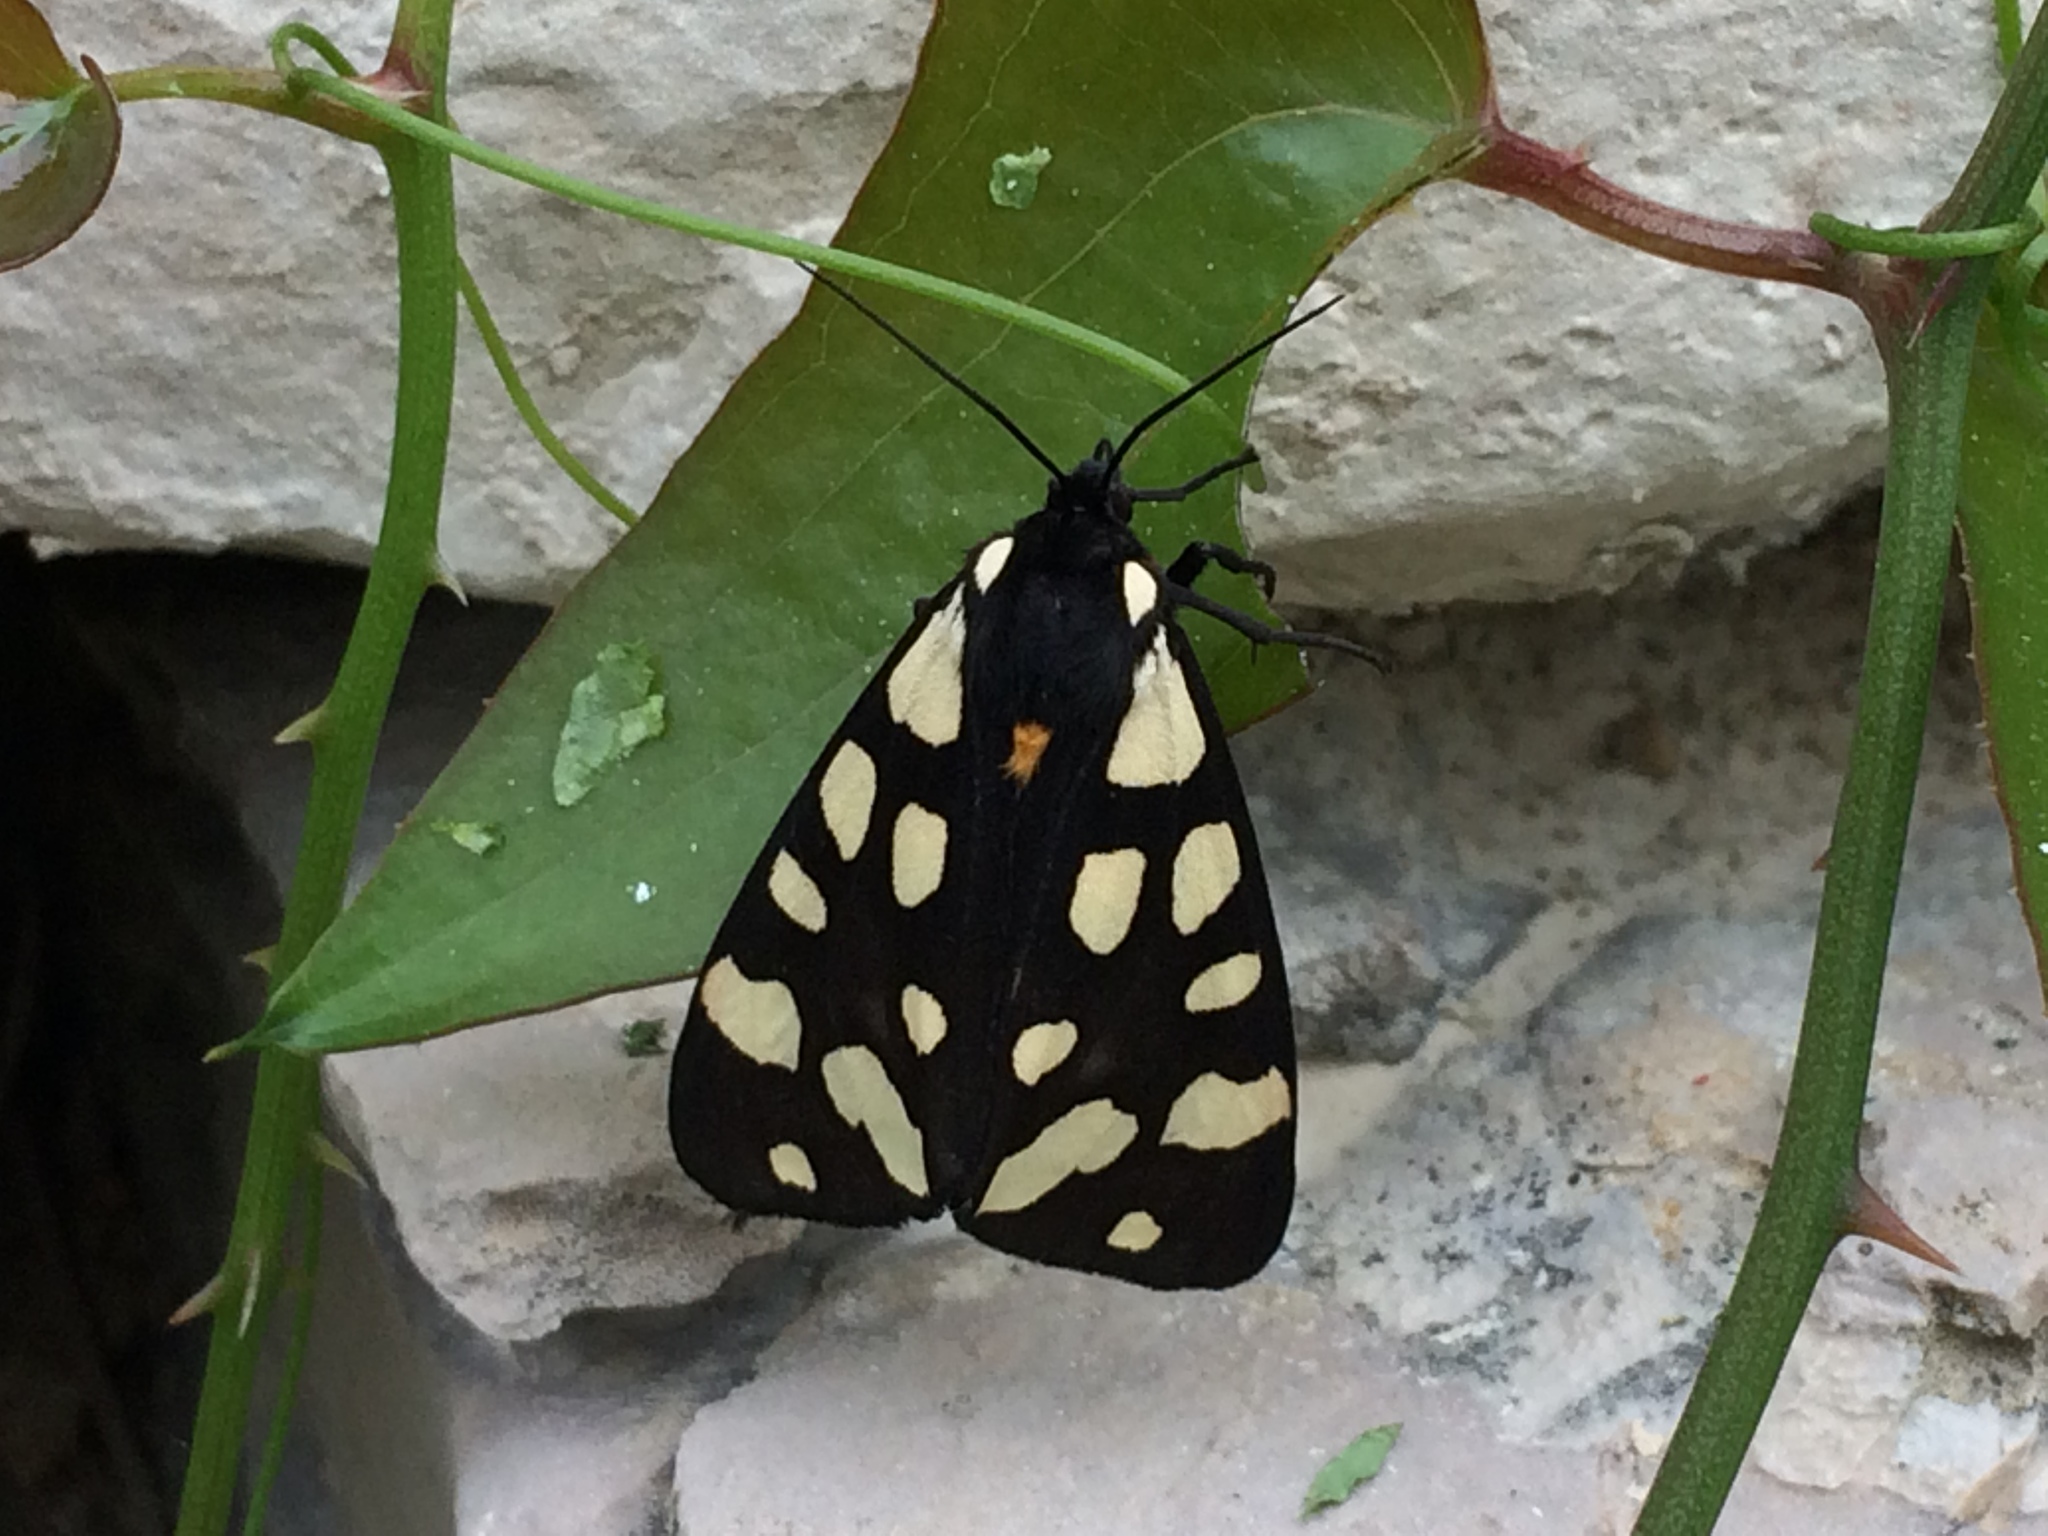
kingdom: Animalia
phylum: Arthropoda
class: Insecta
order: Lepidoptera
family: Erebidae
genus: Epicallia
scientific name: Epicallia villica
